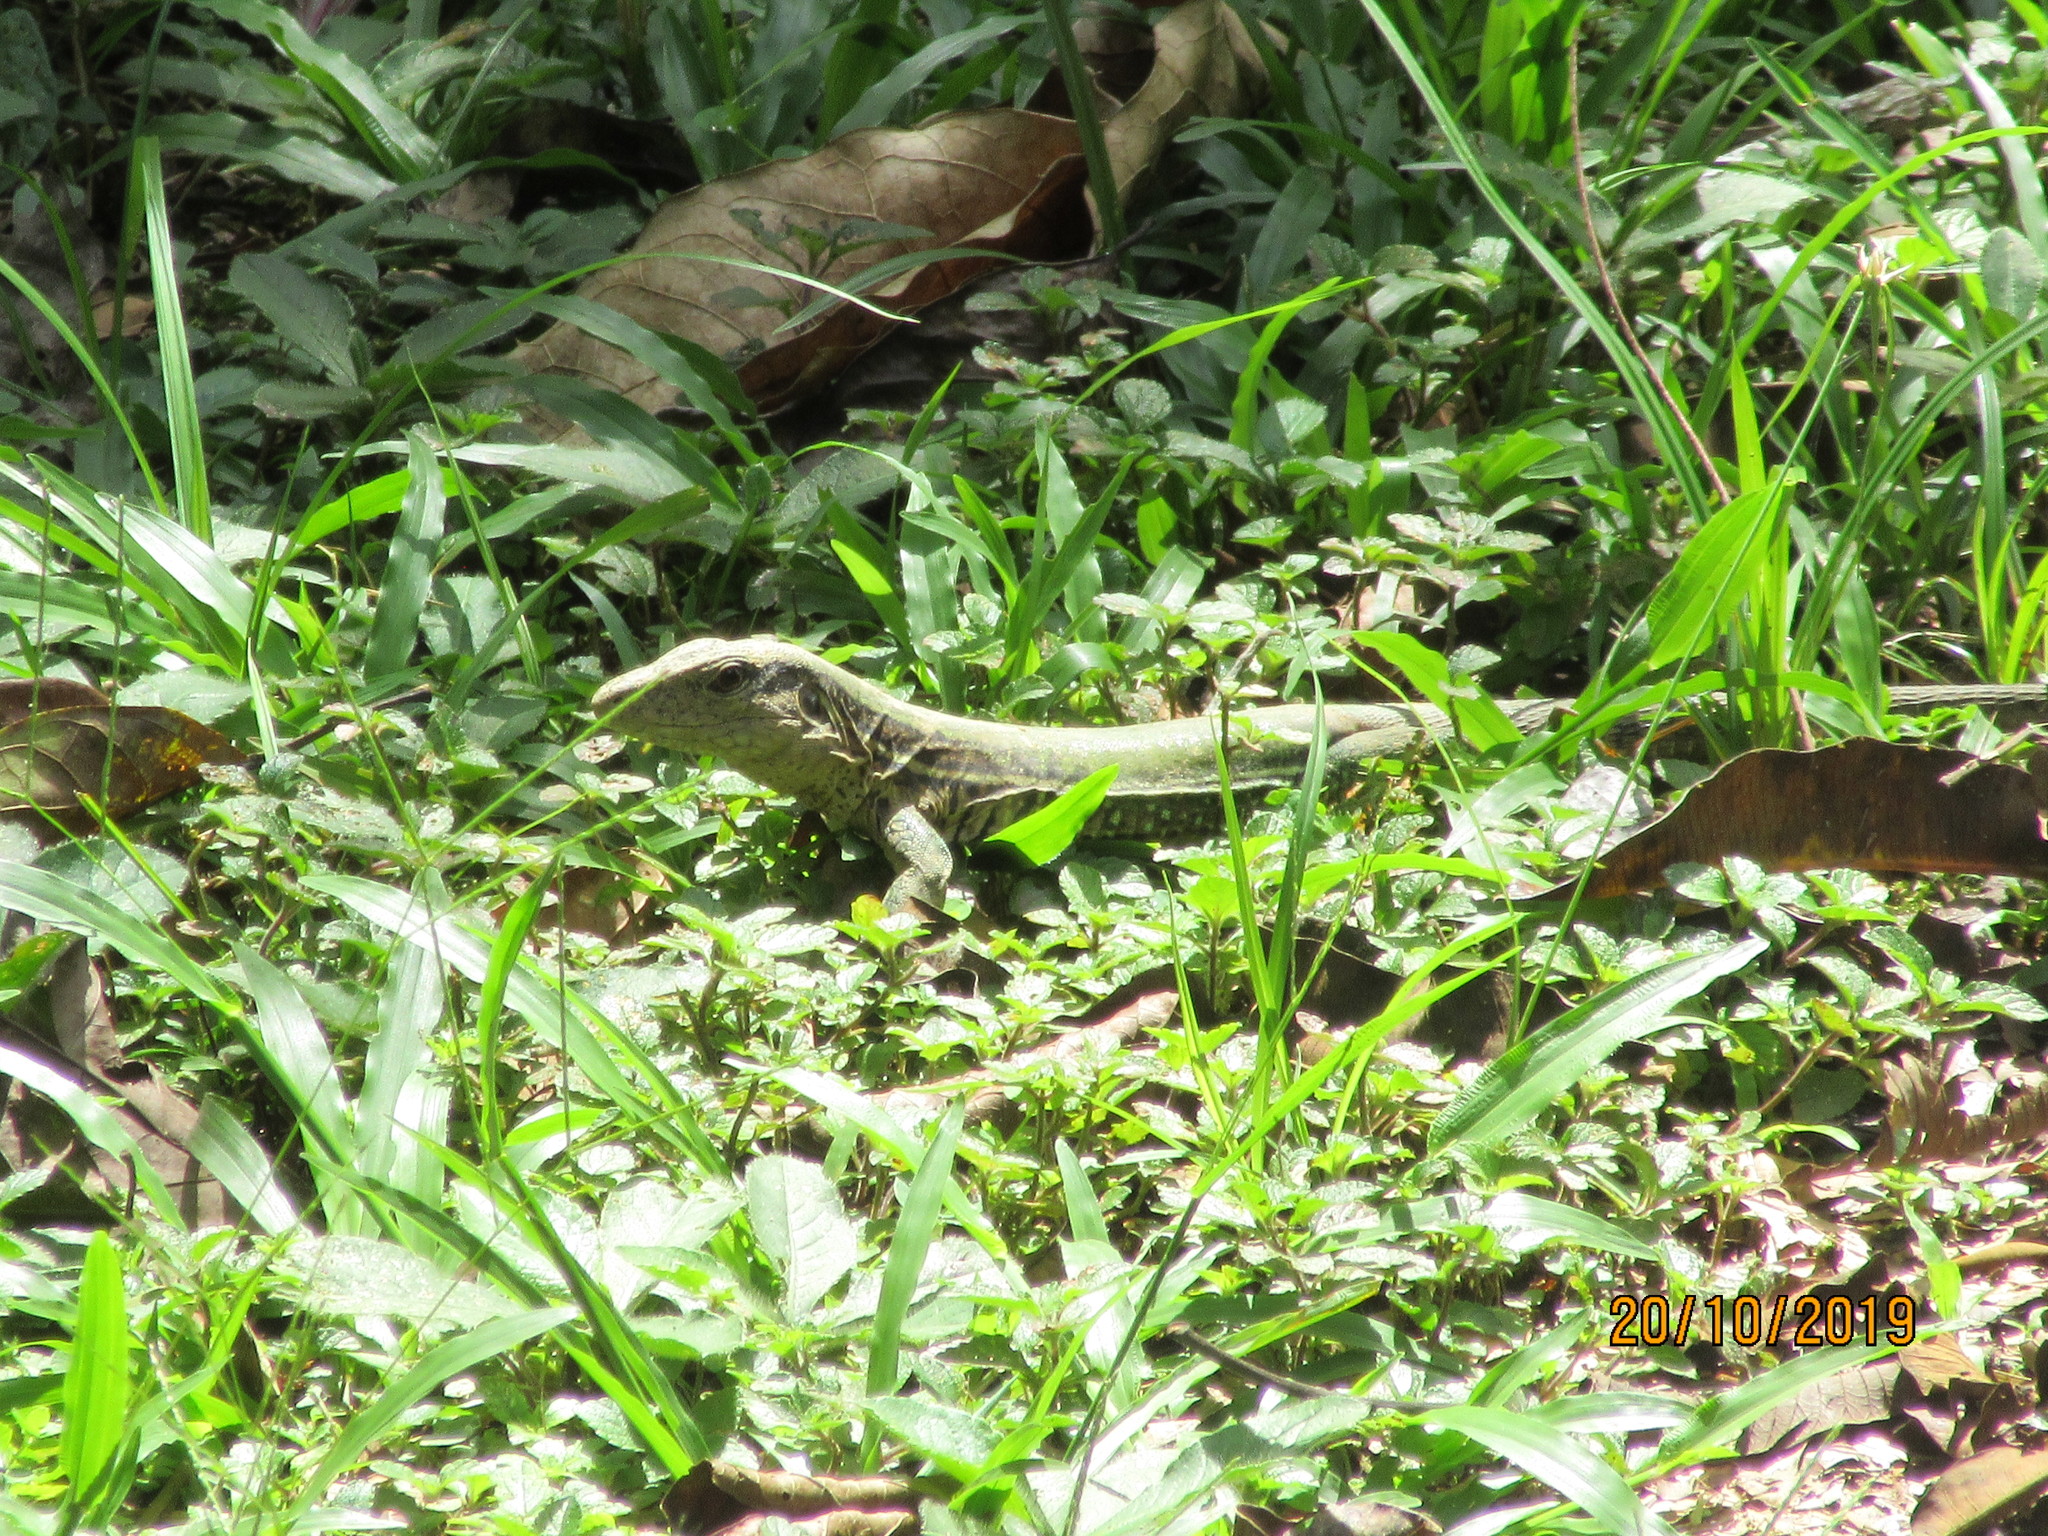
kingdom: Animalia
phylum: Chordata
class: Squamata
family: Teiidae
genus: Ameiva
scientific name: Ameiva ameiva
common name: Giant ameiva
